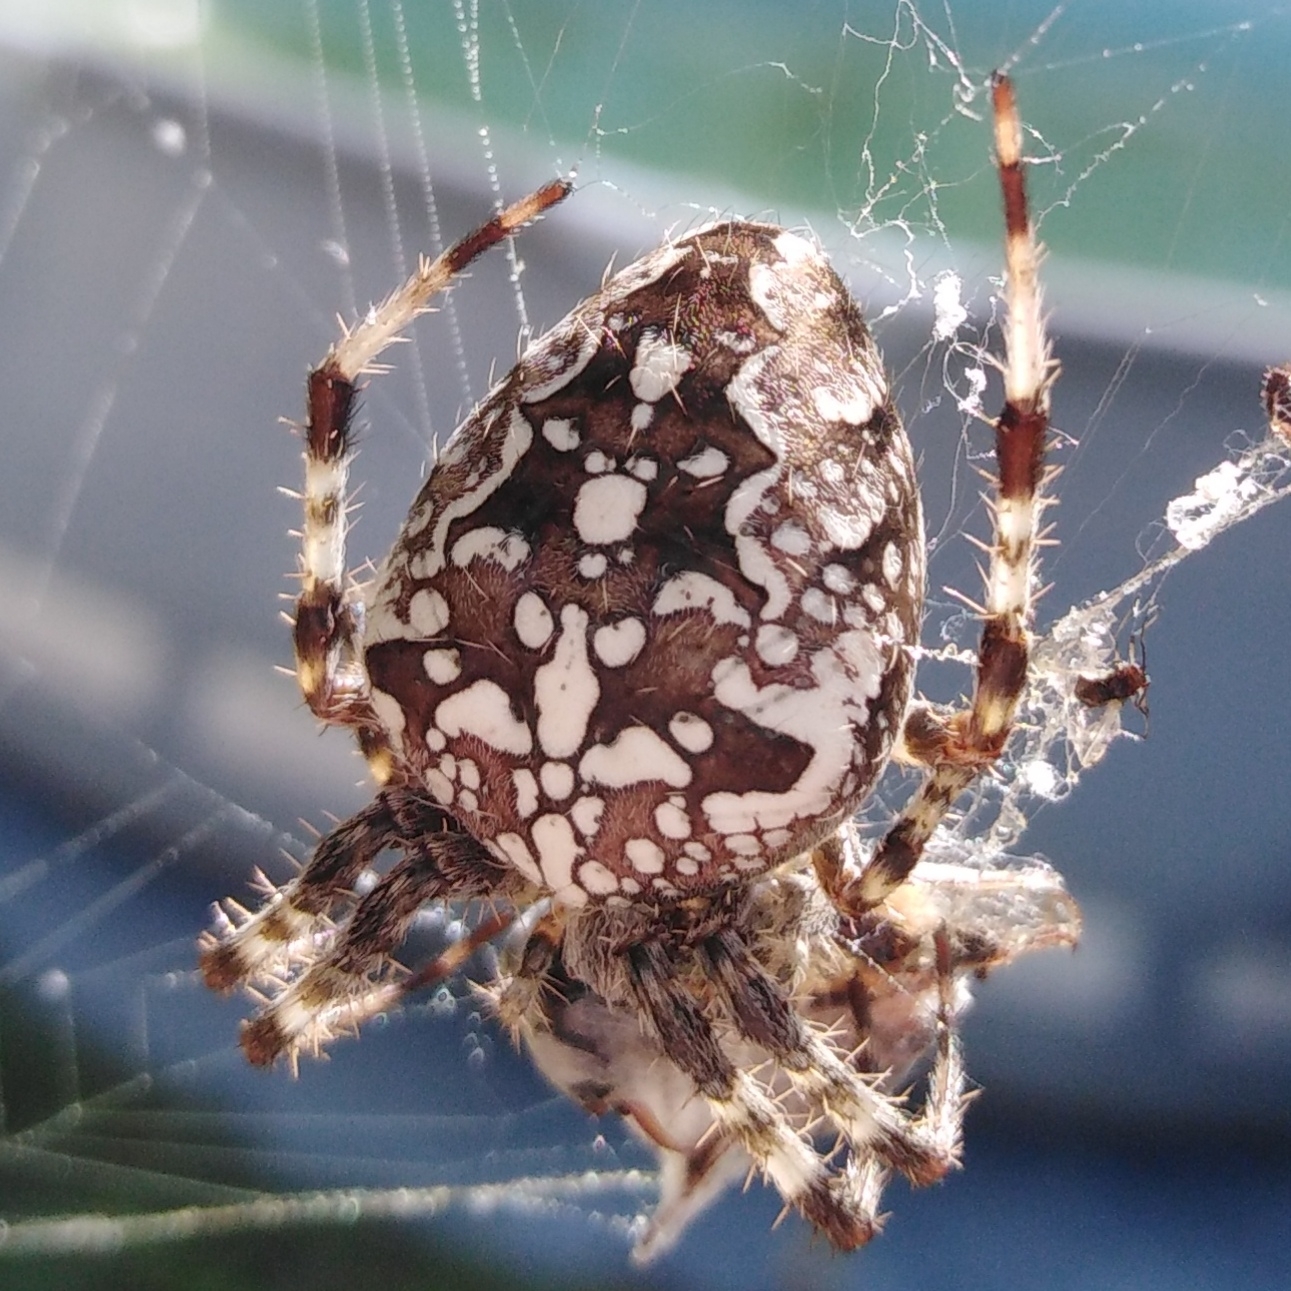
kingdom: Animalia
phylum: Arthropoda
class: Arachnida
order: Araneae
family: Araneidae
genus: Araneus
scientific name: Araneus diadematus
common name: Cross orbweaver
